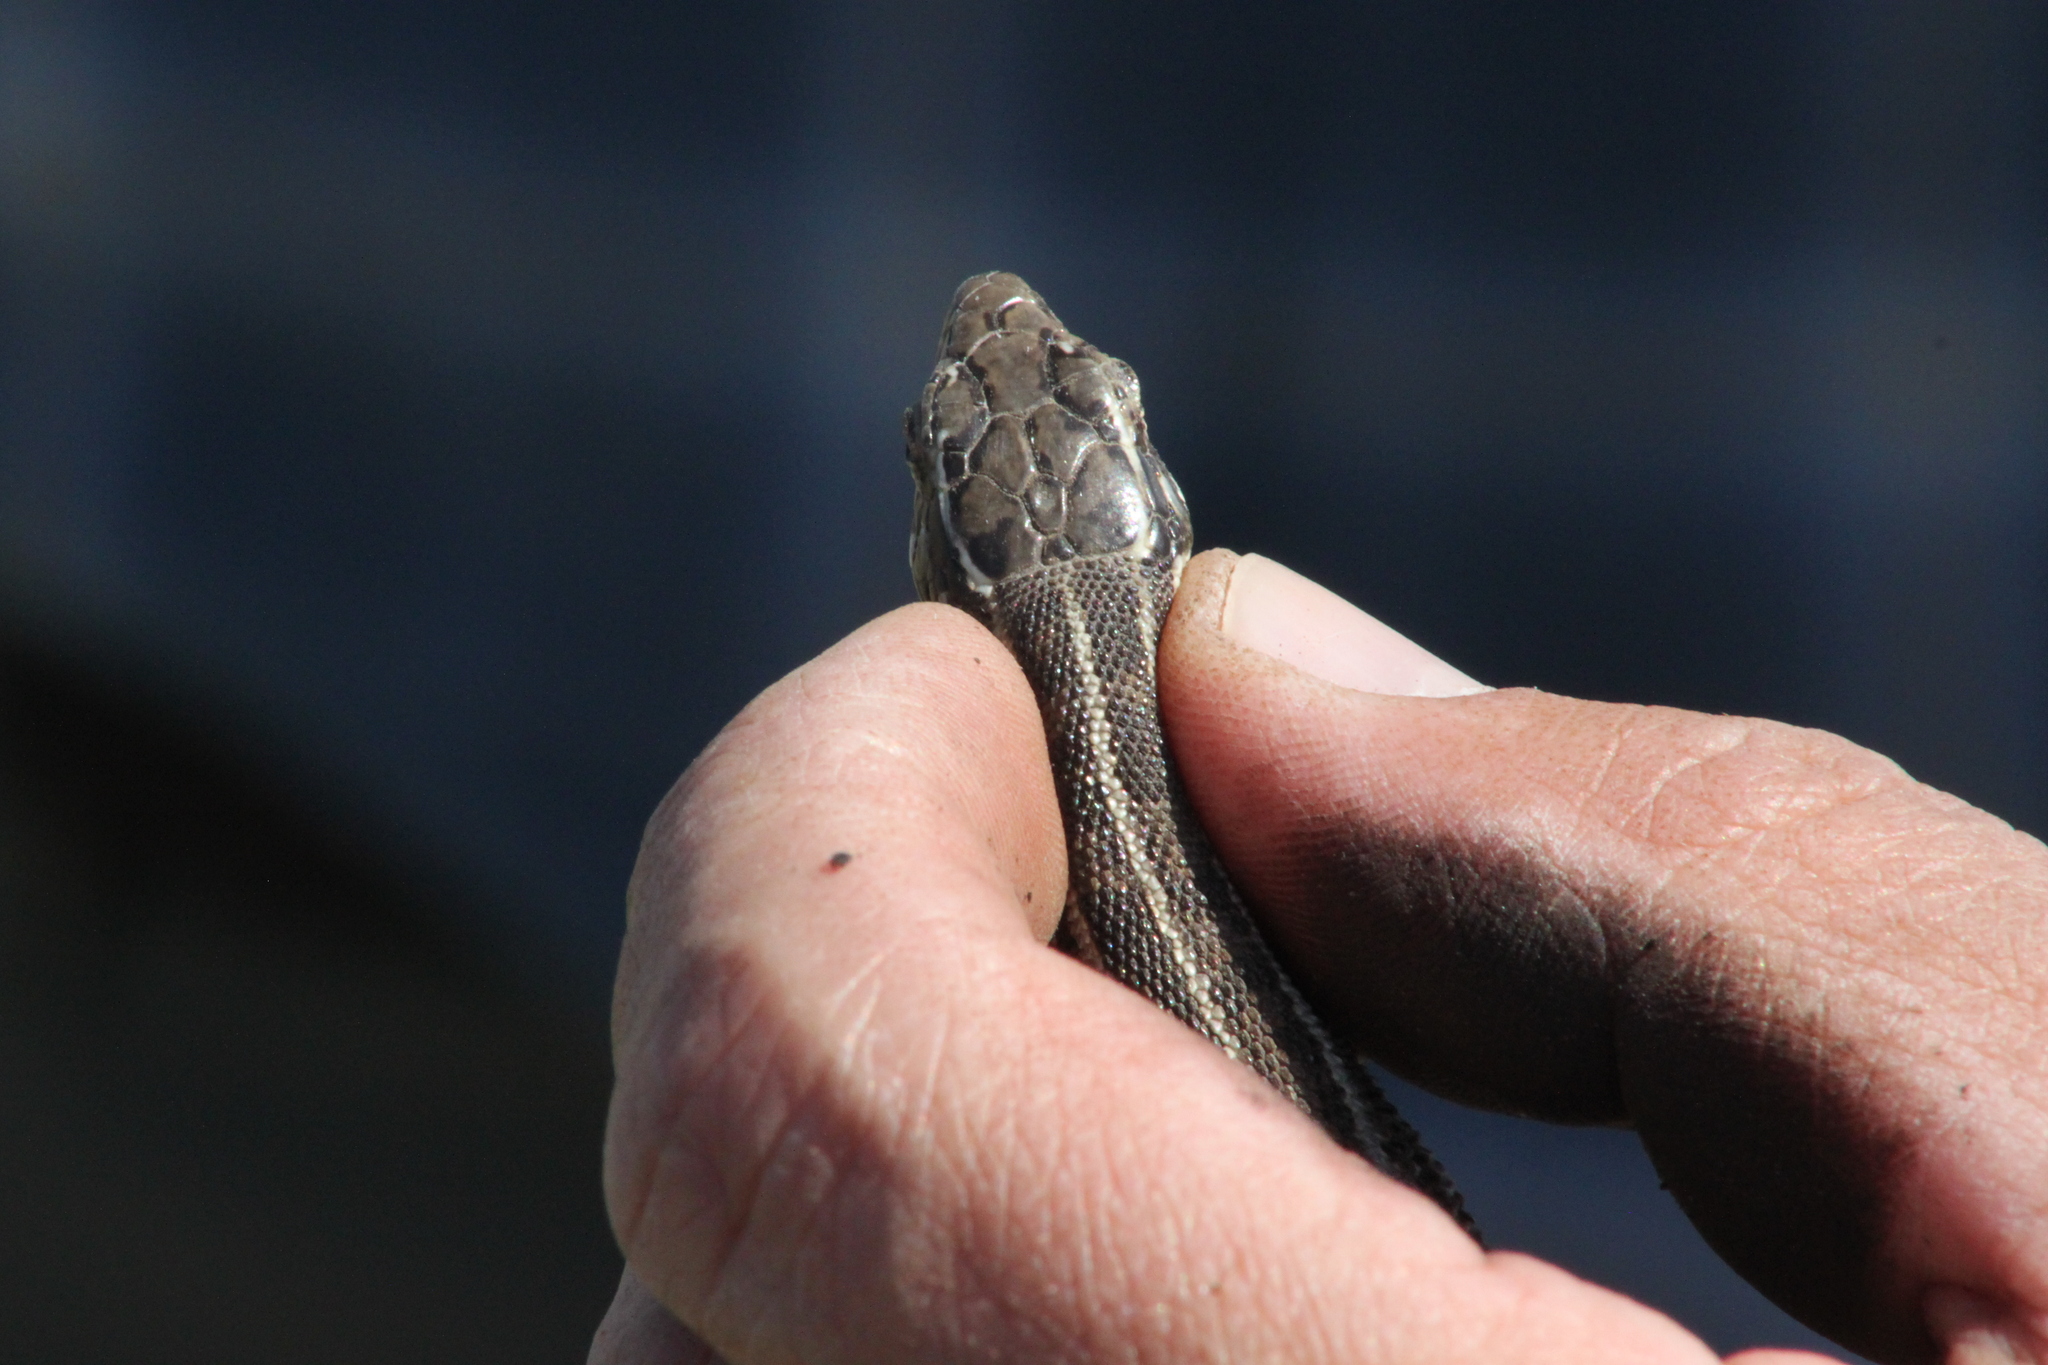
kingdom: Animalia
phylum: Chordata
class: Squamata
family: Lacertidae
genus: Lacerta
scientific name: Lacerta agilis
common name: Sand lizard
